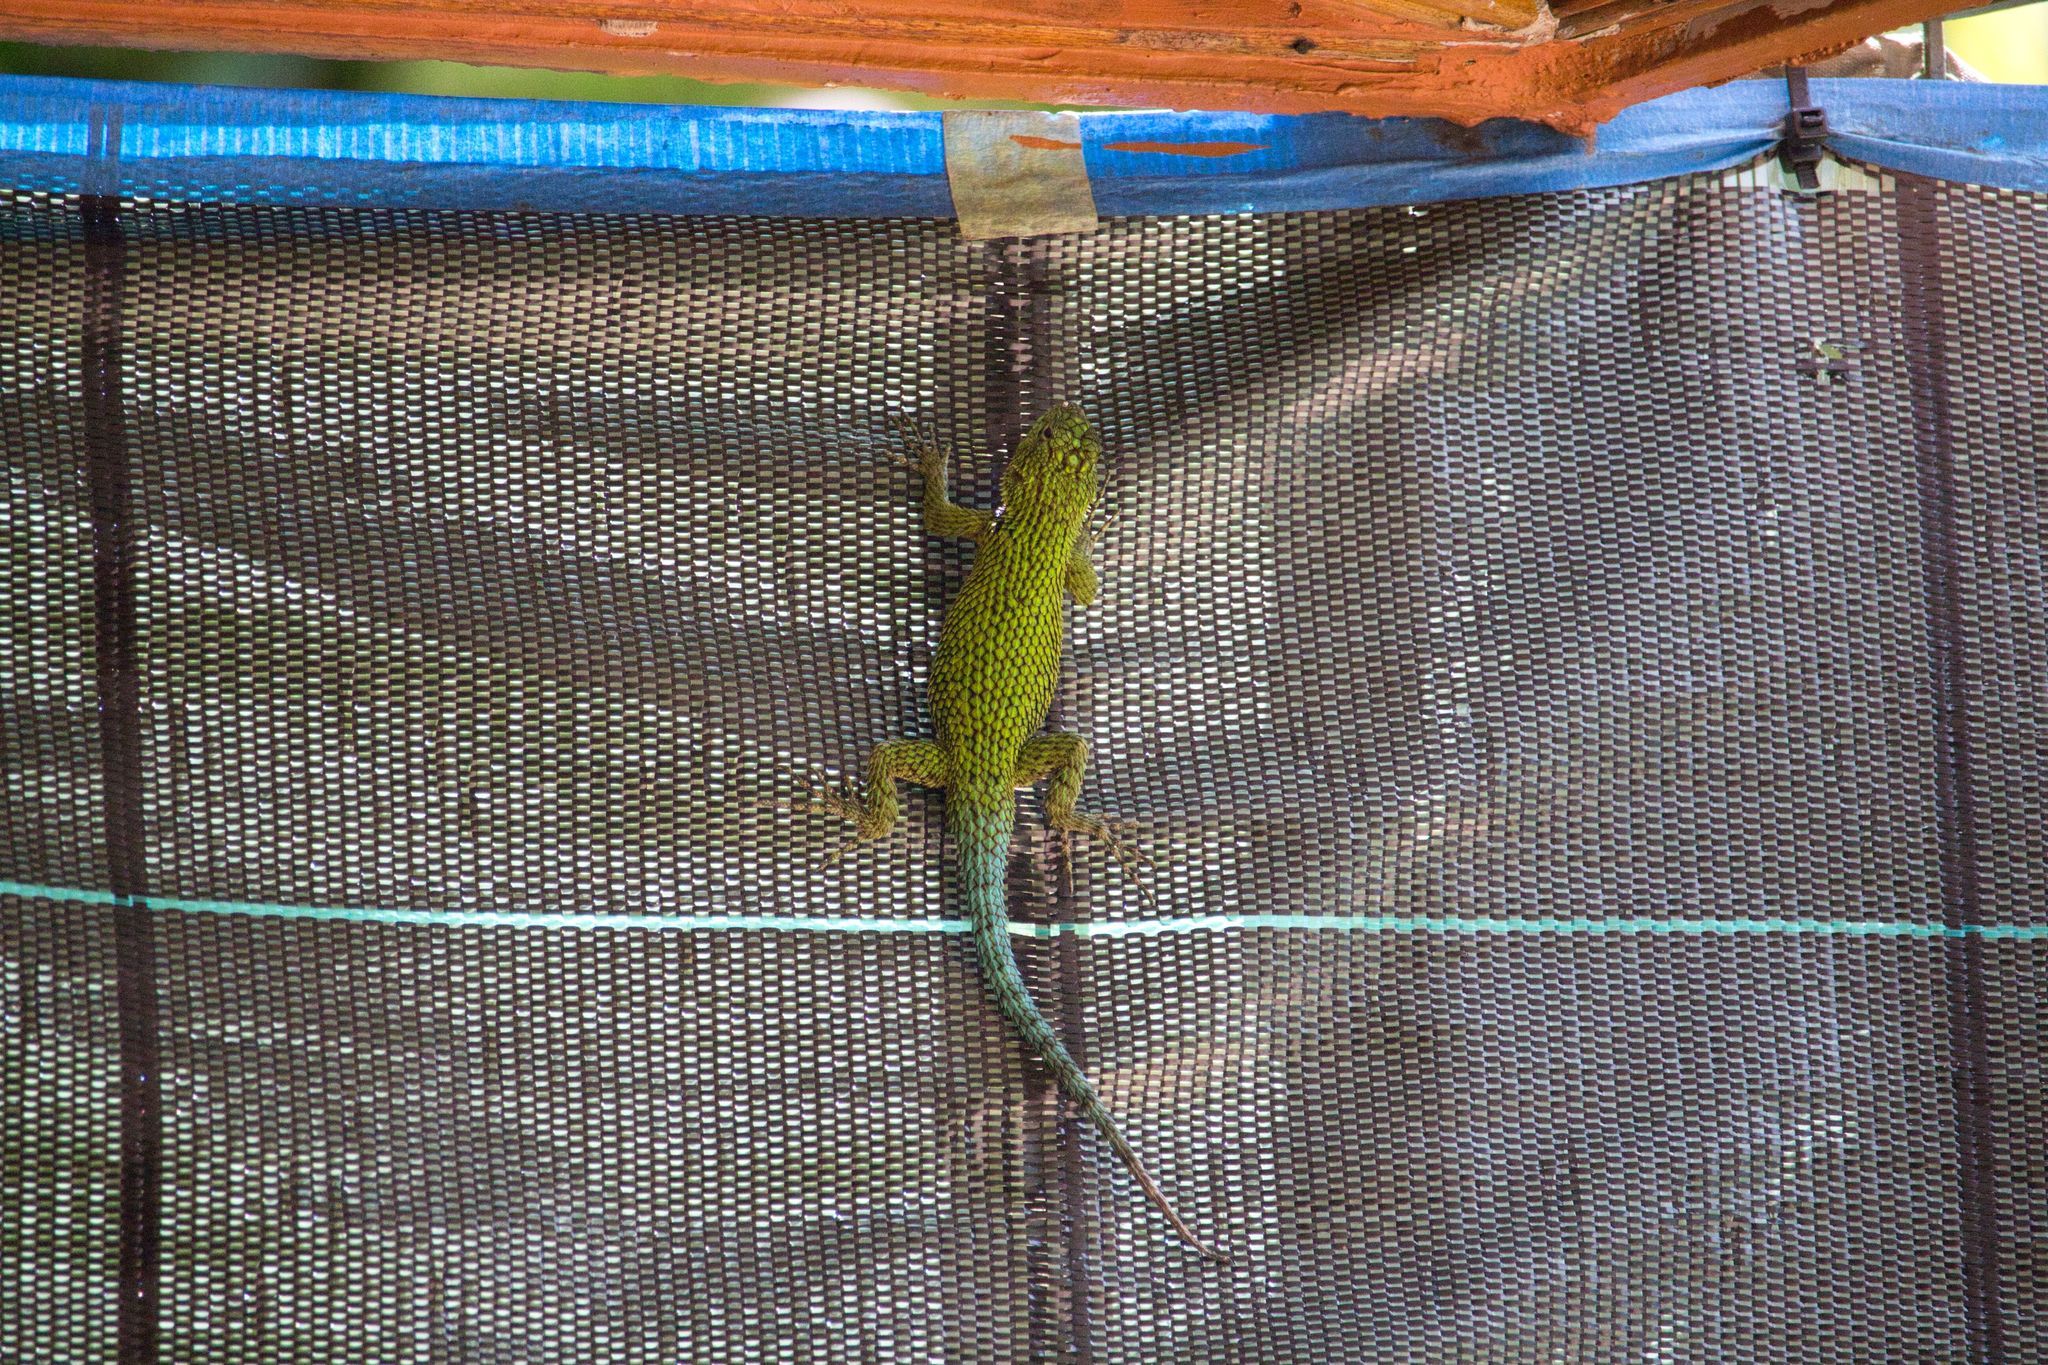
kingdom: Animalia
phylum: Chordata
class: Squamata
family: Phrynosomatidae
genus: Sceloporus
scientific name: Sceloporus malachiticus
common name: Green spiny lizard
